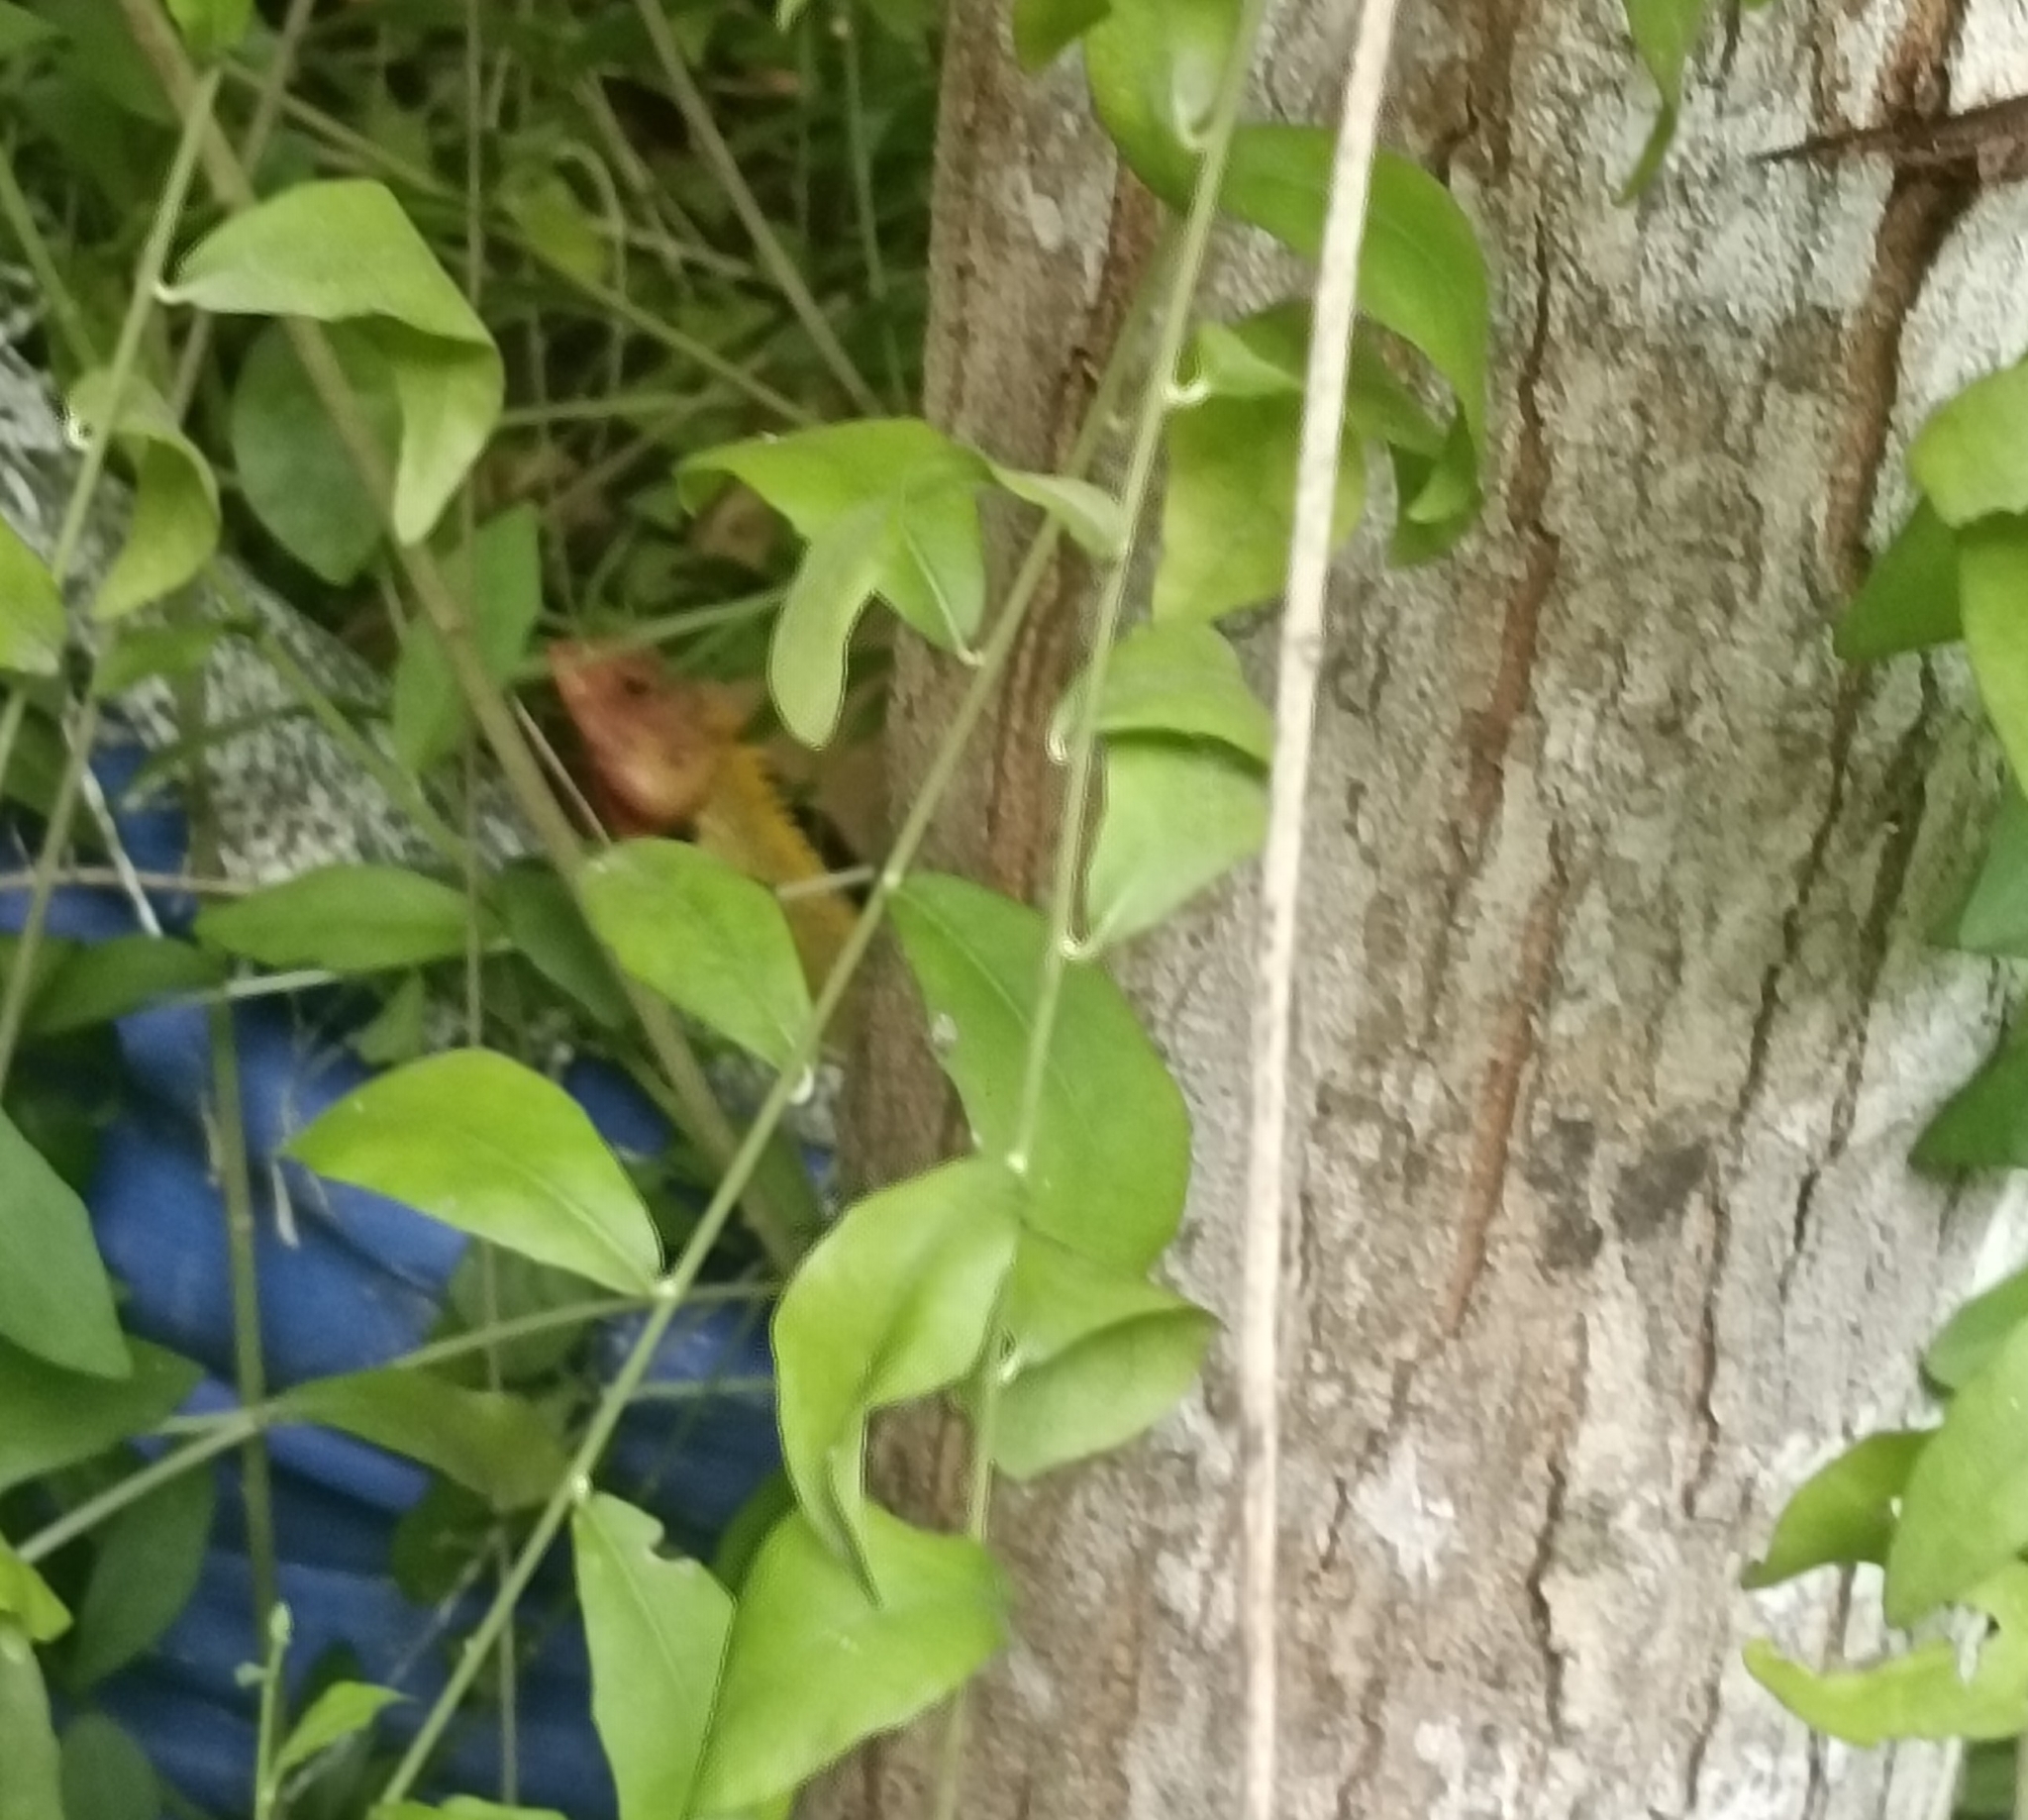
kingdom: Animalia
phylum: Chordata
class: Squamata
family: Agamidae
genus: Calotes
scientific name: Calotes versicolor
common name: Oriental garden lizard
